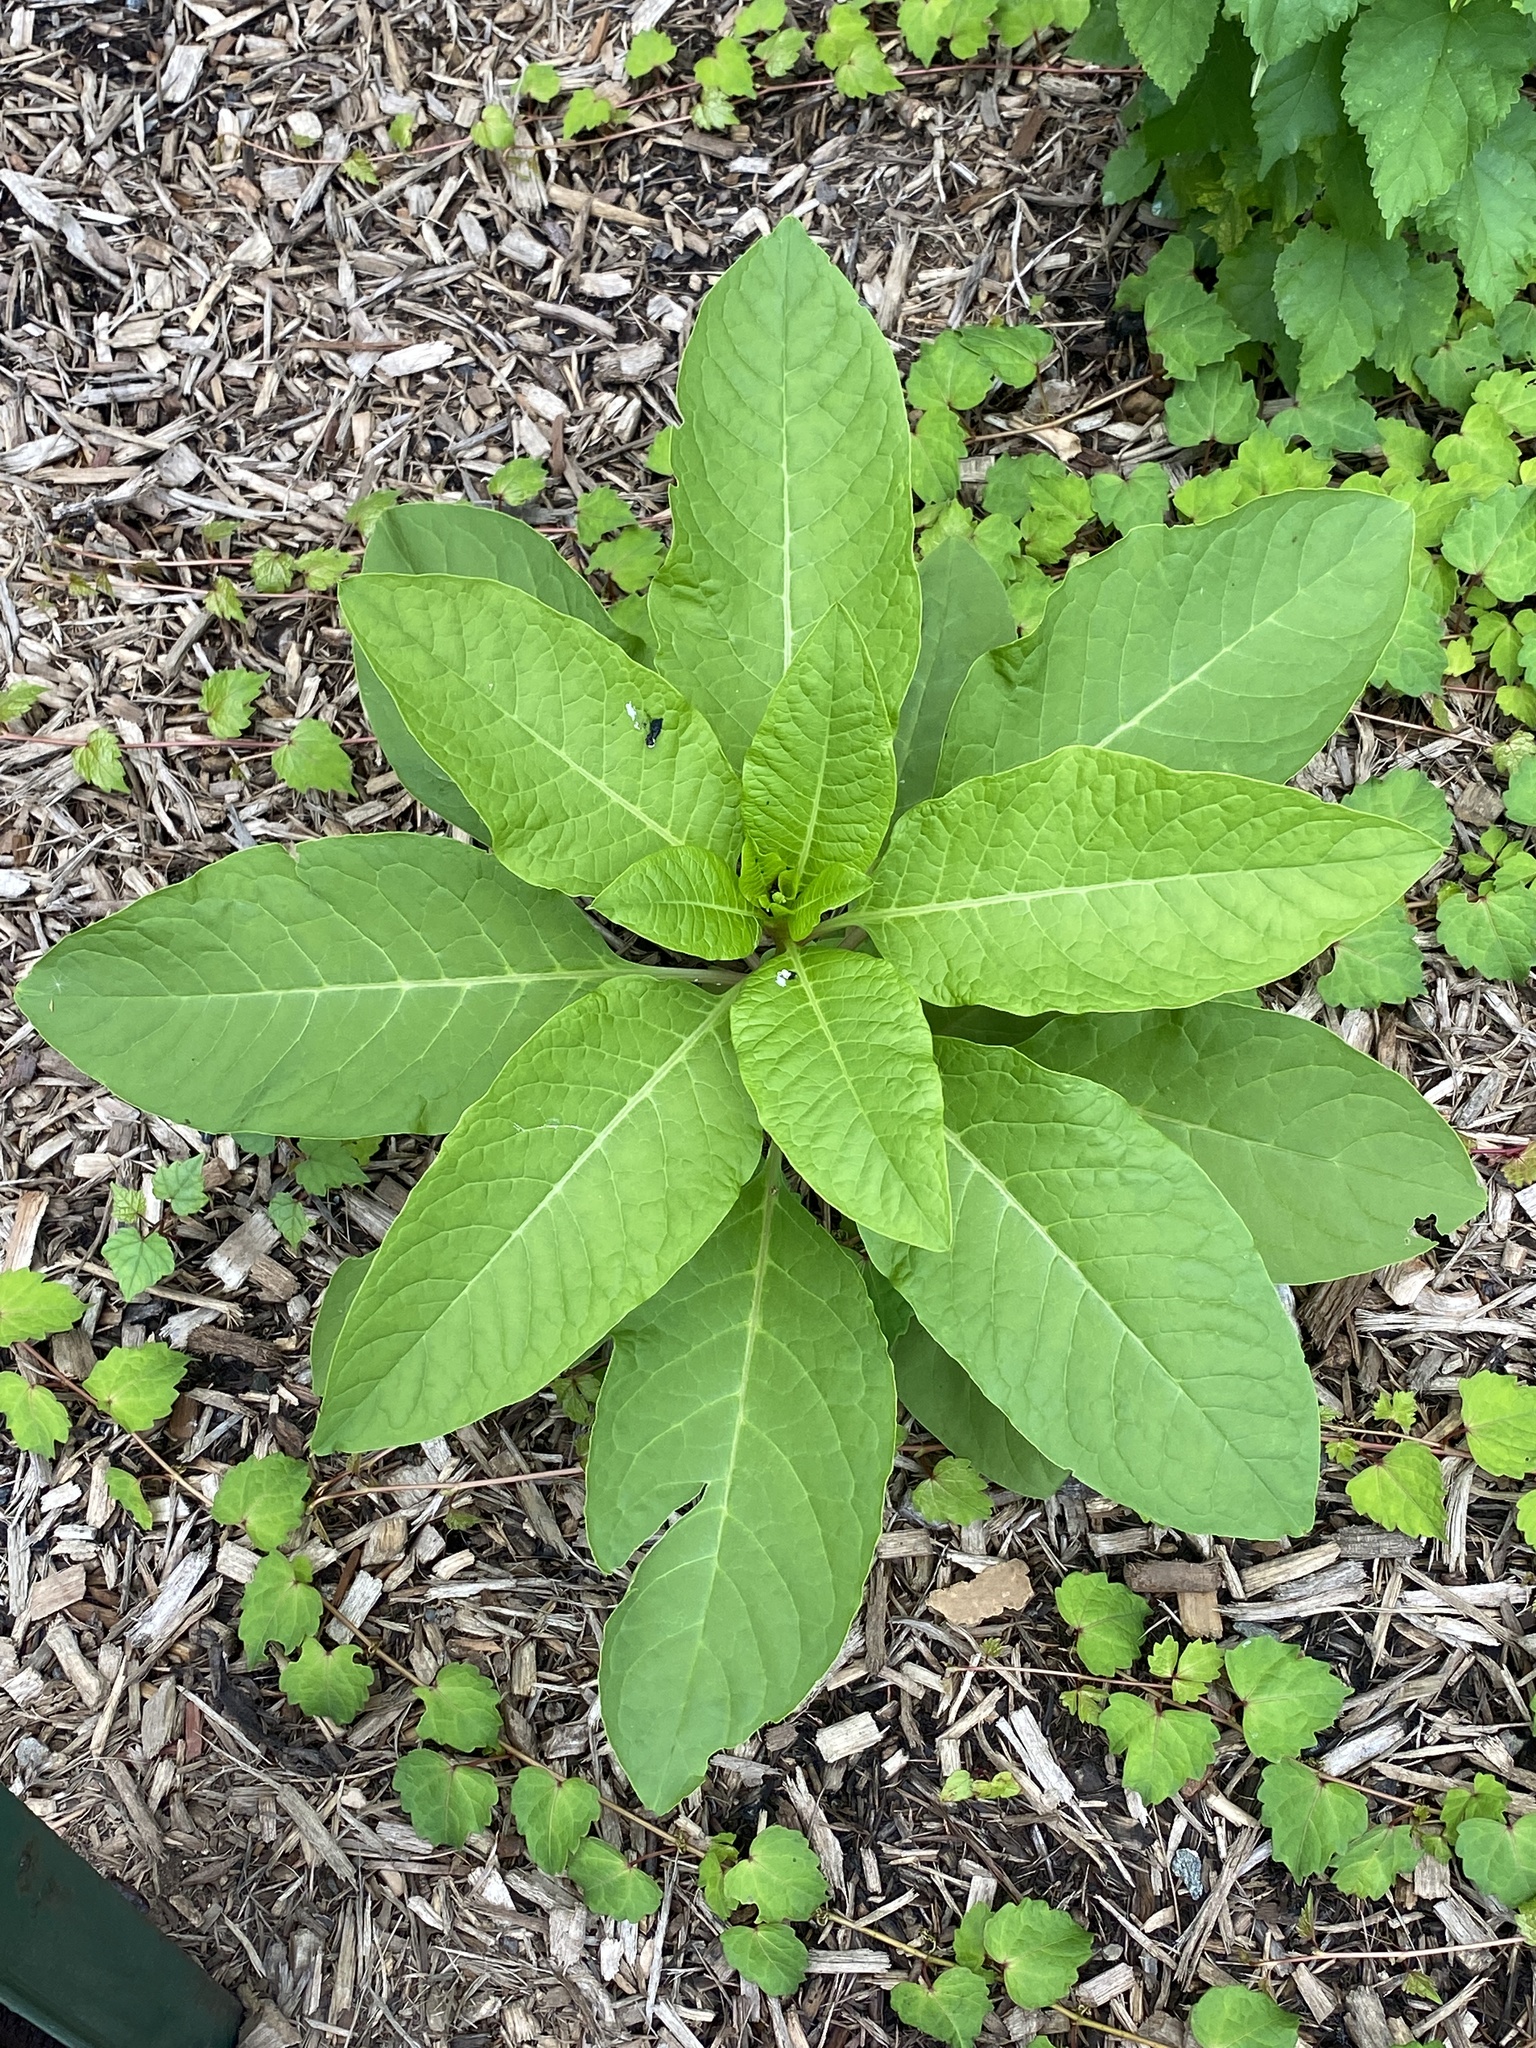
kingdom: Plantae
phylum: Tracheophyta
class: Magnoliopsida
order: Caryophyllales
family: Phytolaccaceae
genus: Phytolacca
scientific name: Phytolacca americana
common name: American pokeweed
